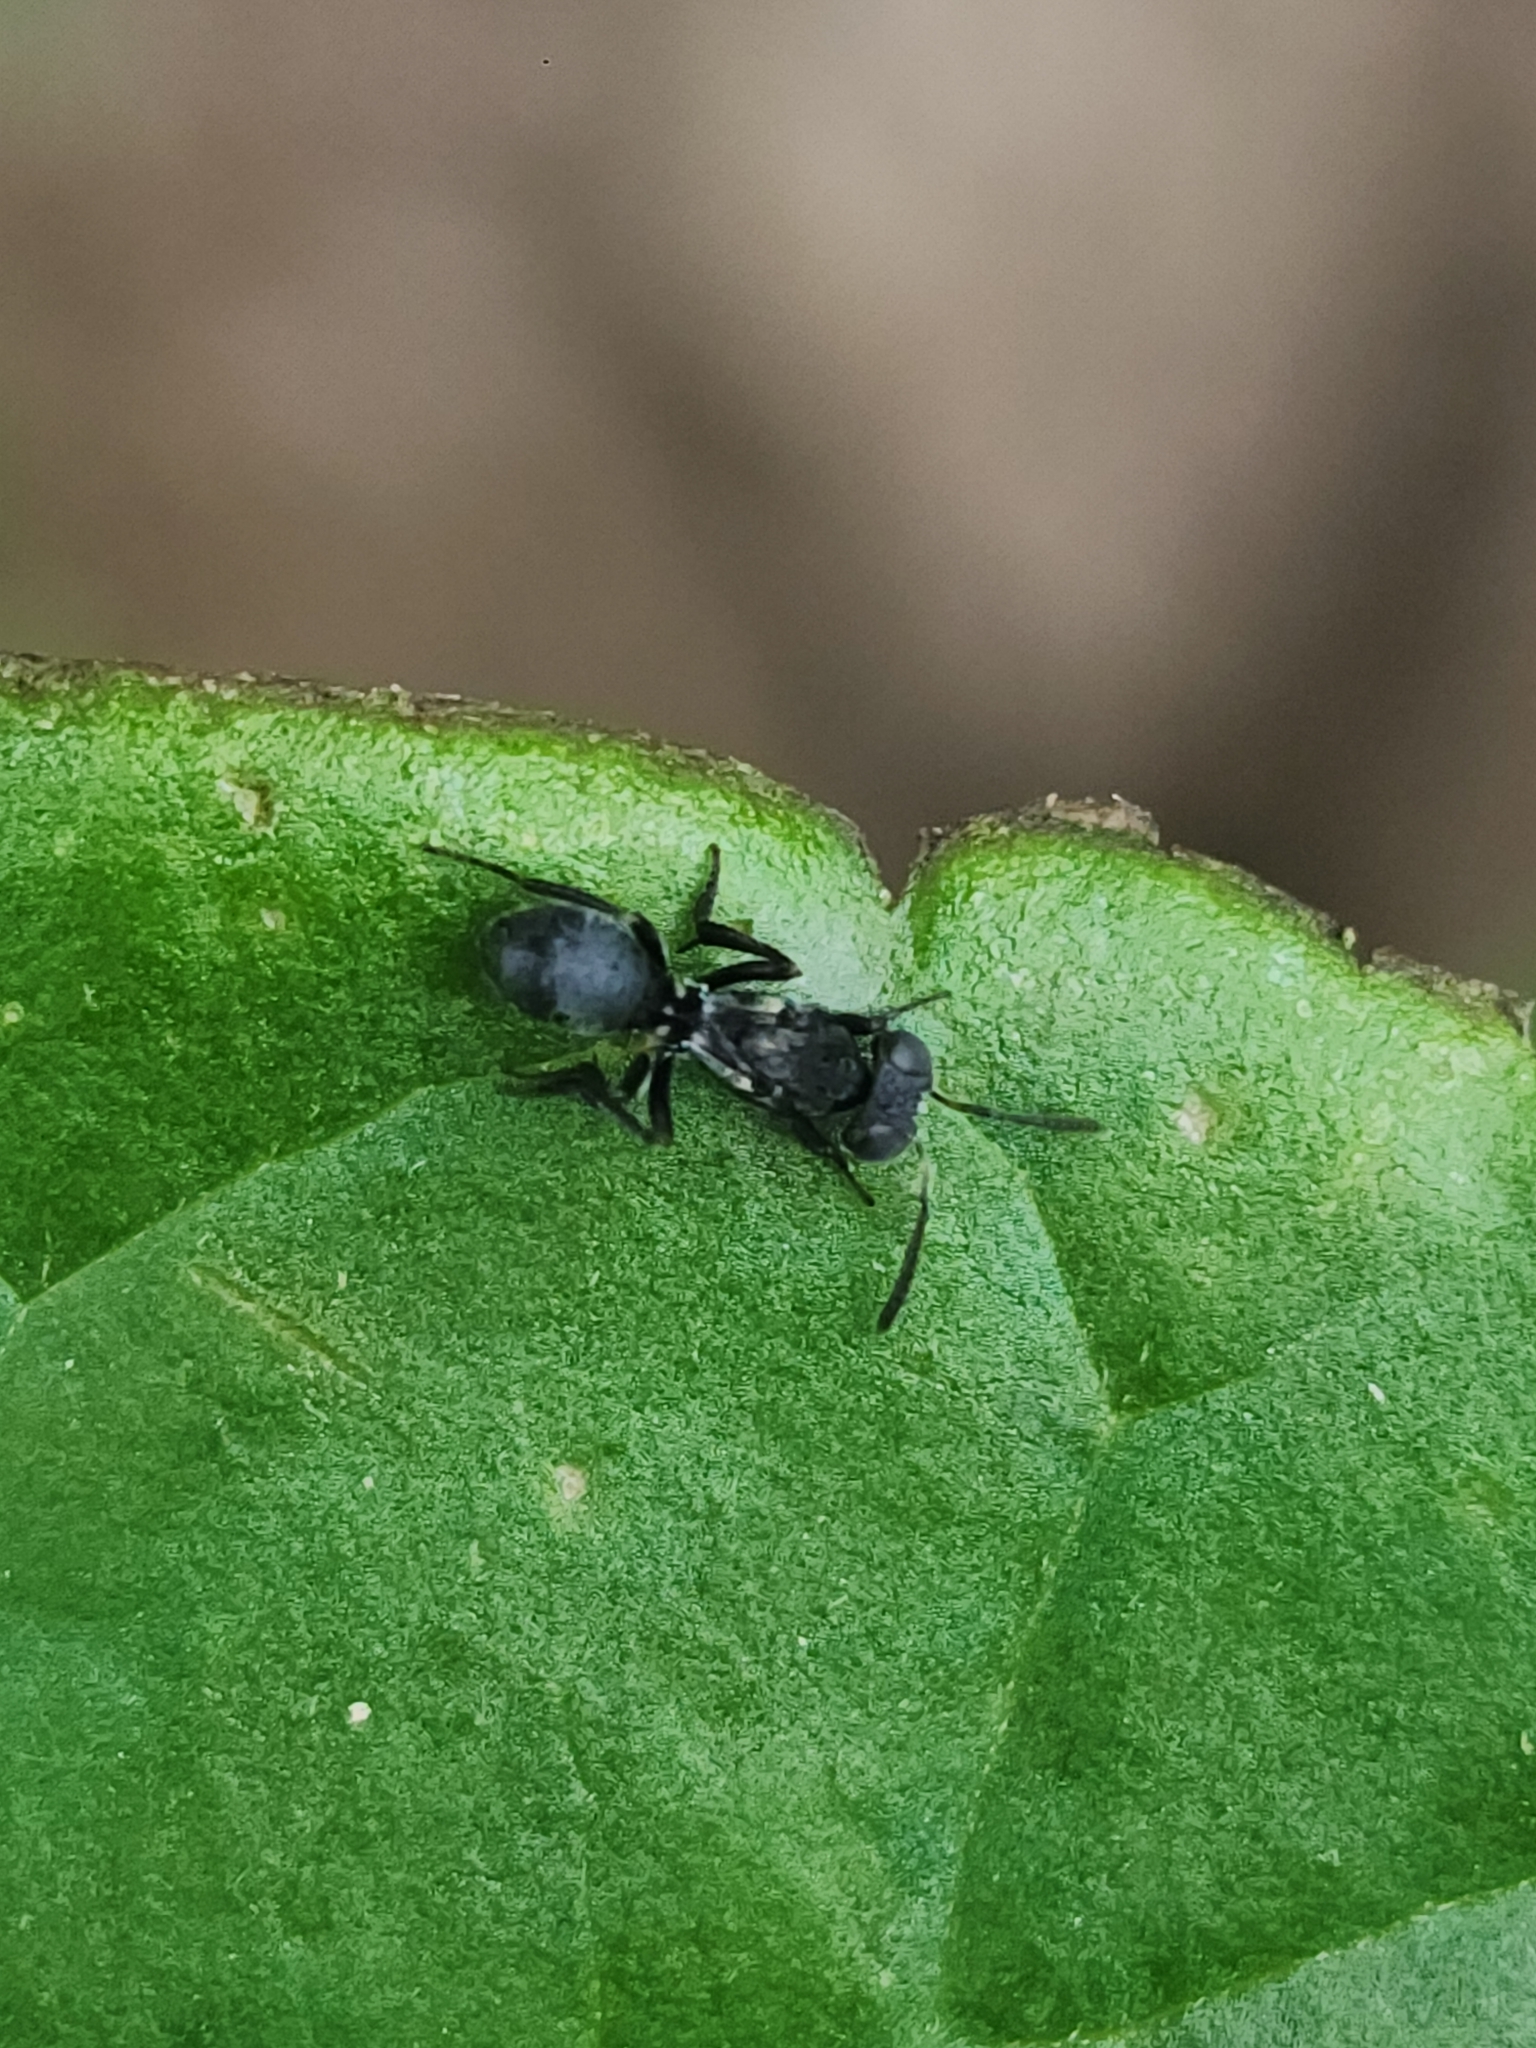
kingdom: Animalia
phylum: Arthropoda
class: Insecta
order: Hymenoptera
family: Eupelmidae
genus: Lutnes
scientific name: Lutnes biguttata
